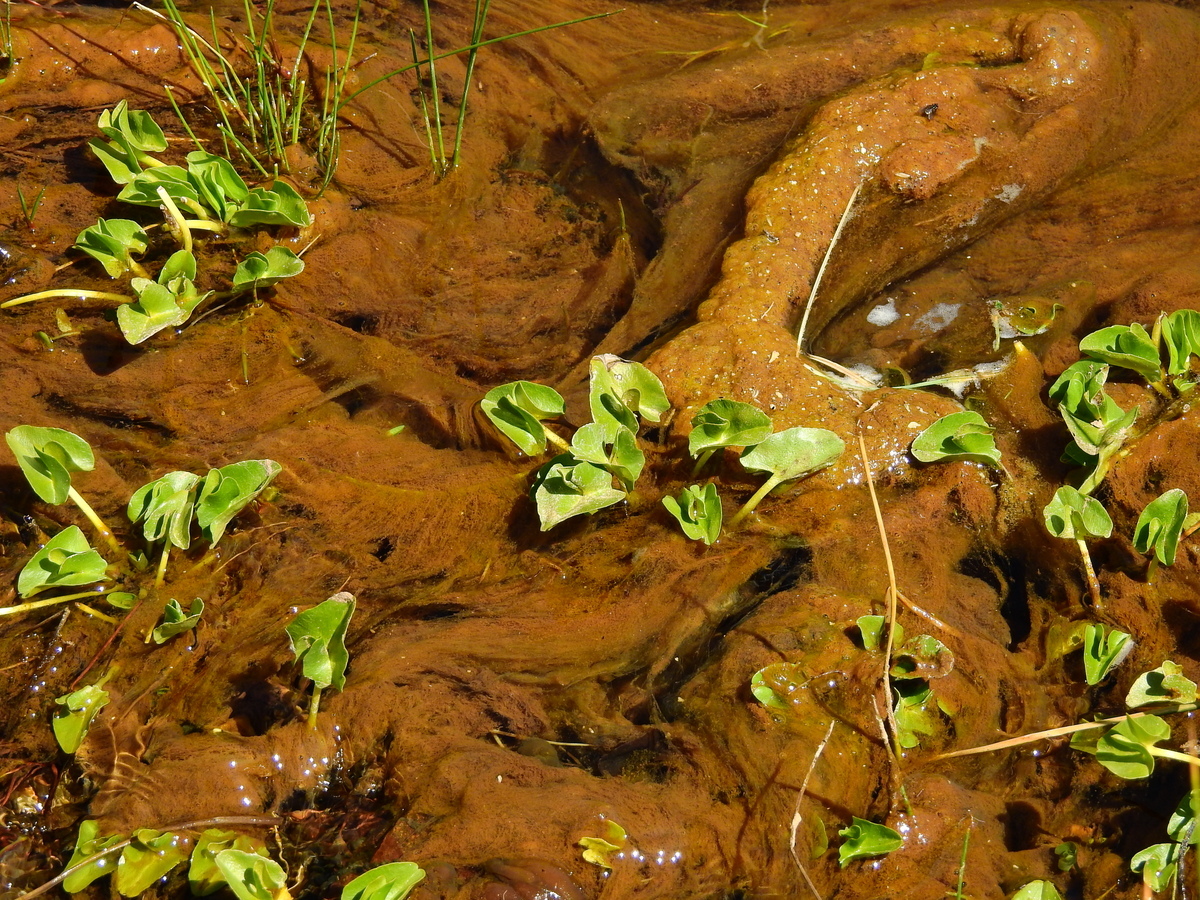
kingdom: Plantae
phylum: Tracheophyta
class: Magnoliopsida
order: Ranunculales
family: Ranunculaceae
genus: Caltha
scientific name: Caltha sagittata
